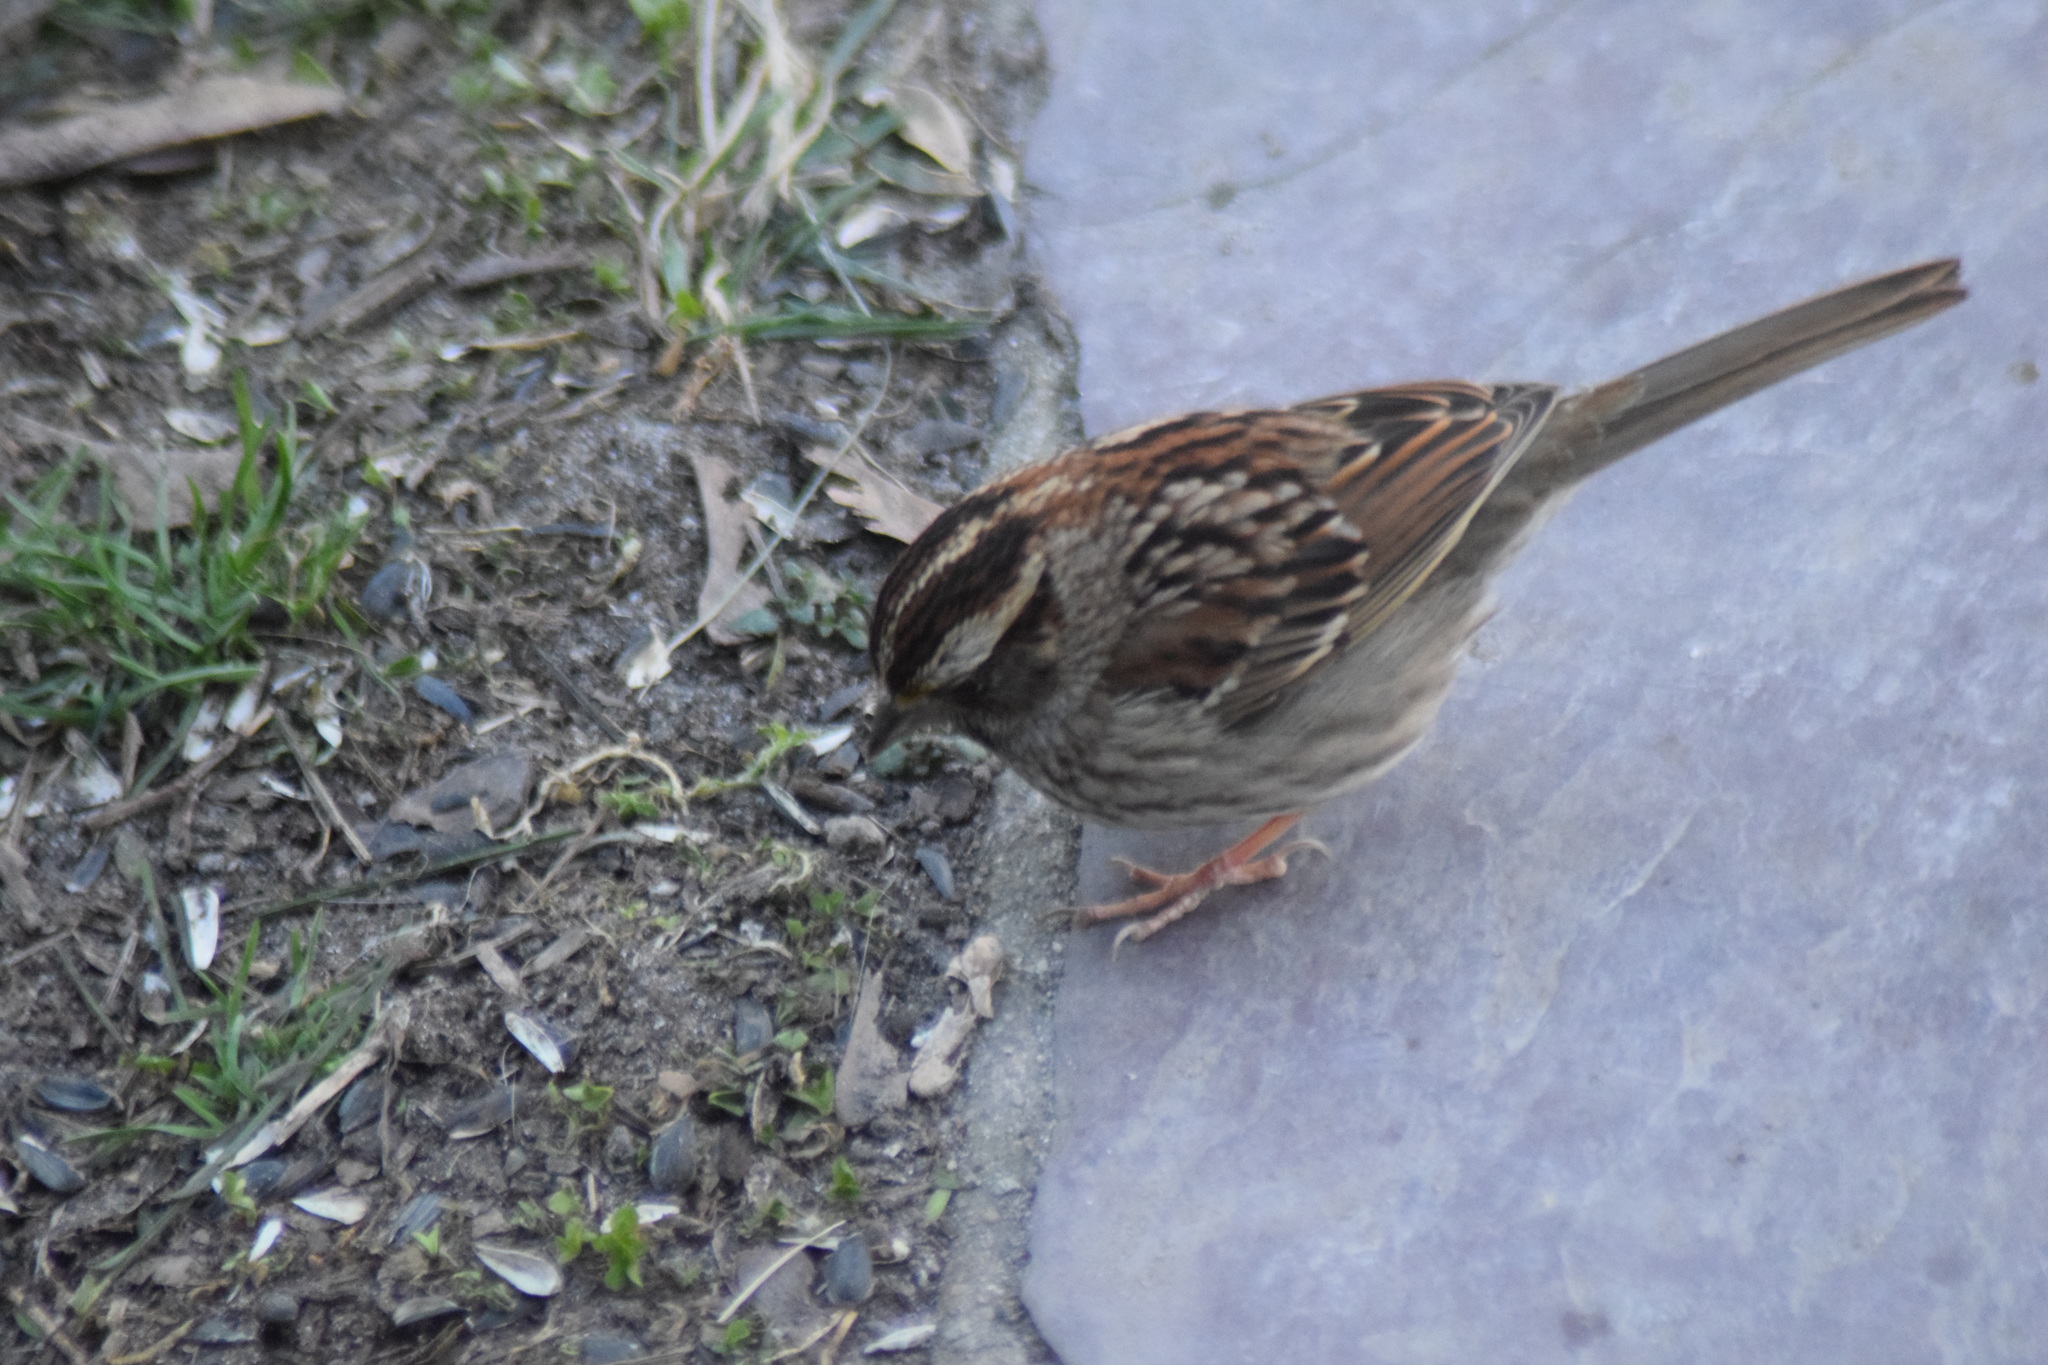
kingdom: Animalia
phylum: Chordata
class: Aves
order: Passeriformes
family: Passerellidae
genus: Zonotrichia
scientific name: Zonotrichia albicollis
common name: White-throated sparrow
